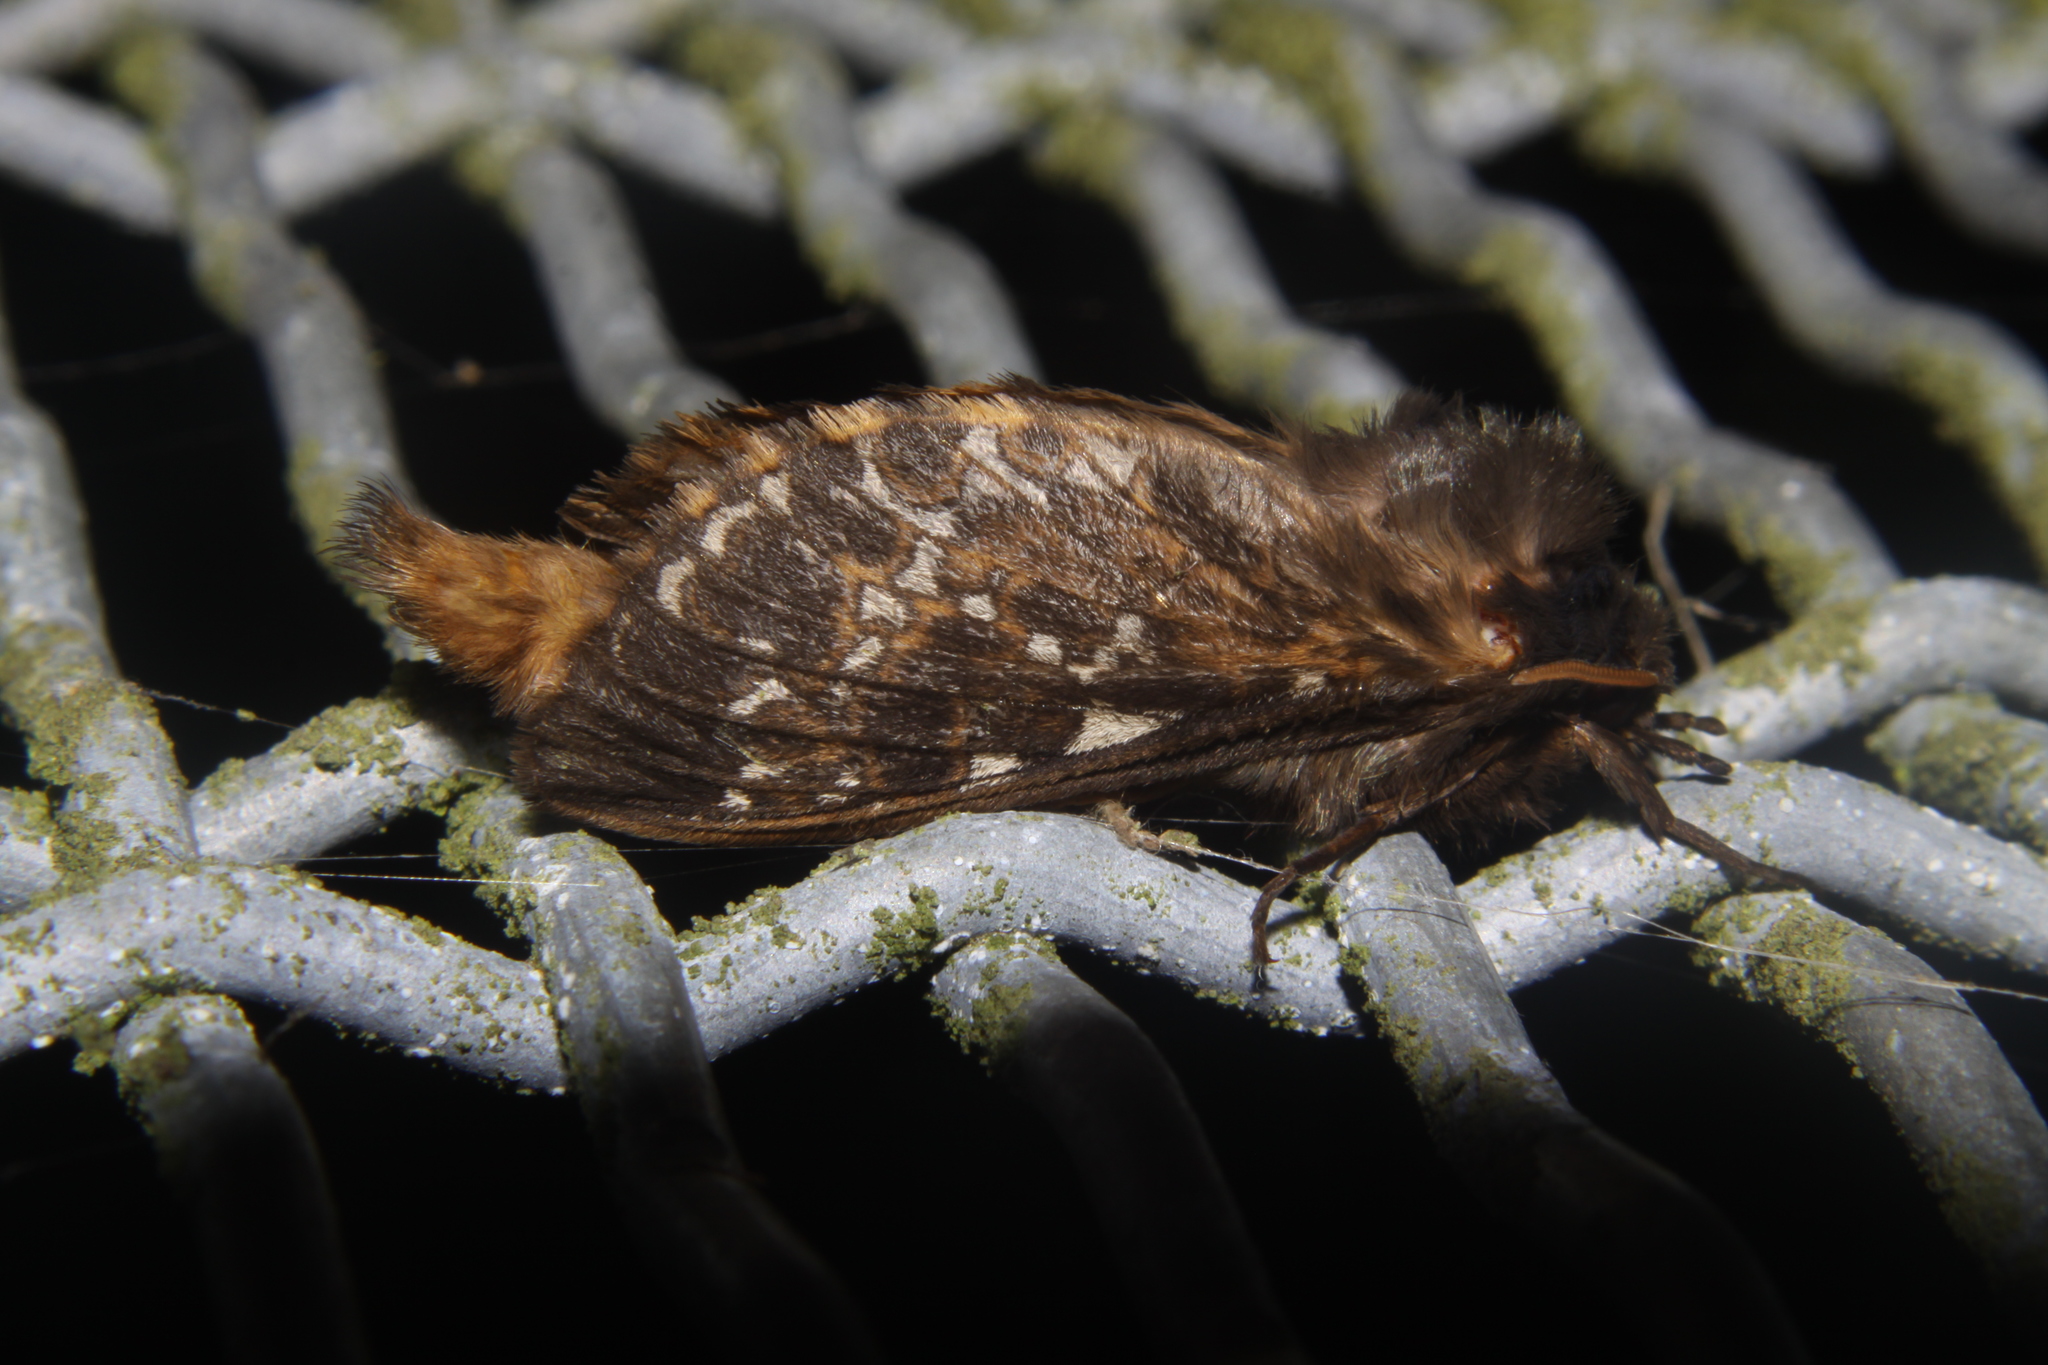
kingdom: Animalia
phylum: Arthropoda
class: Insecta
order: Lepidoptera
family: Hepialidae
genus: Cladoxycanus
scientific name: Cladoxycanus minos
